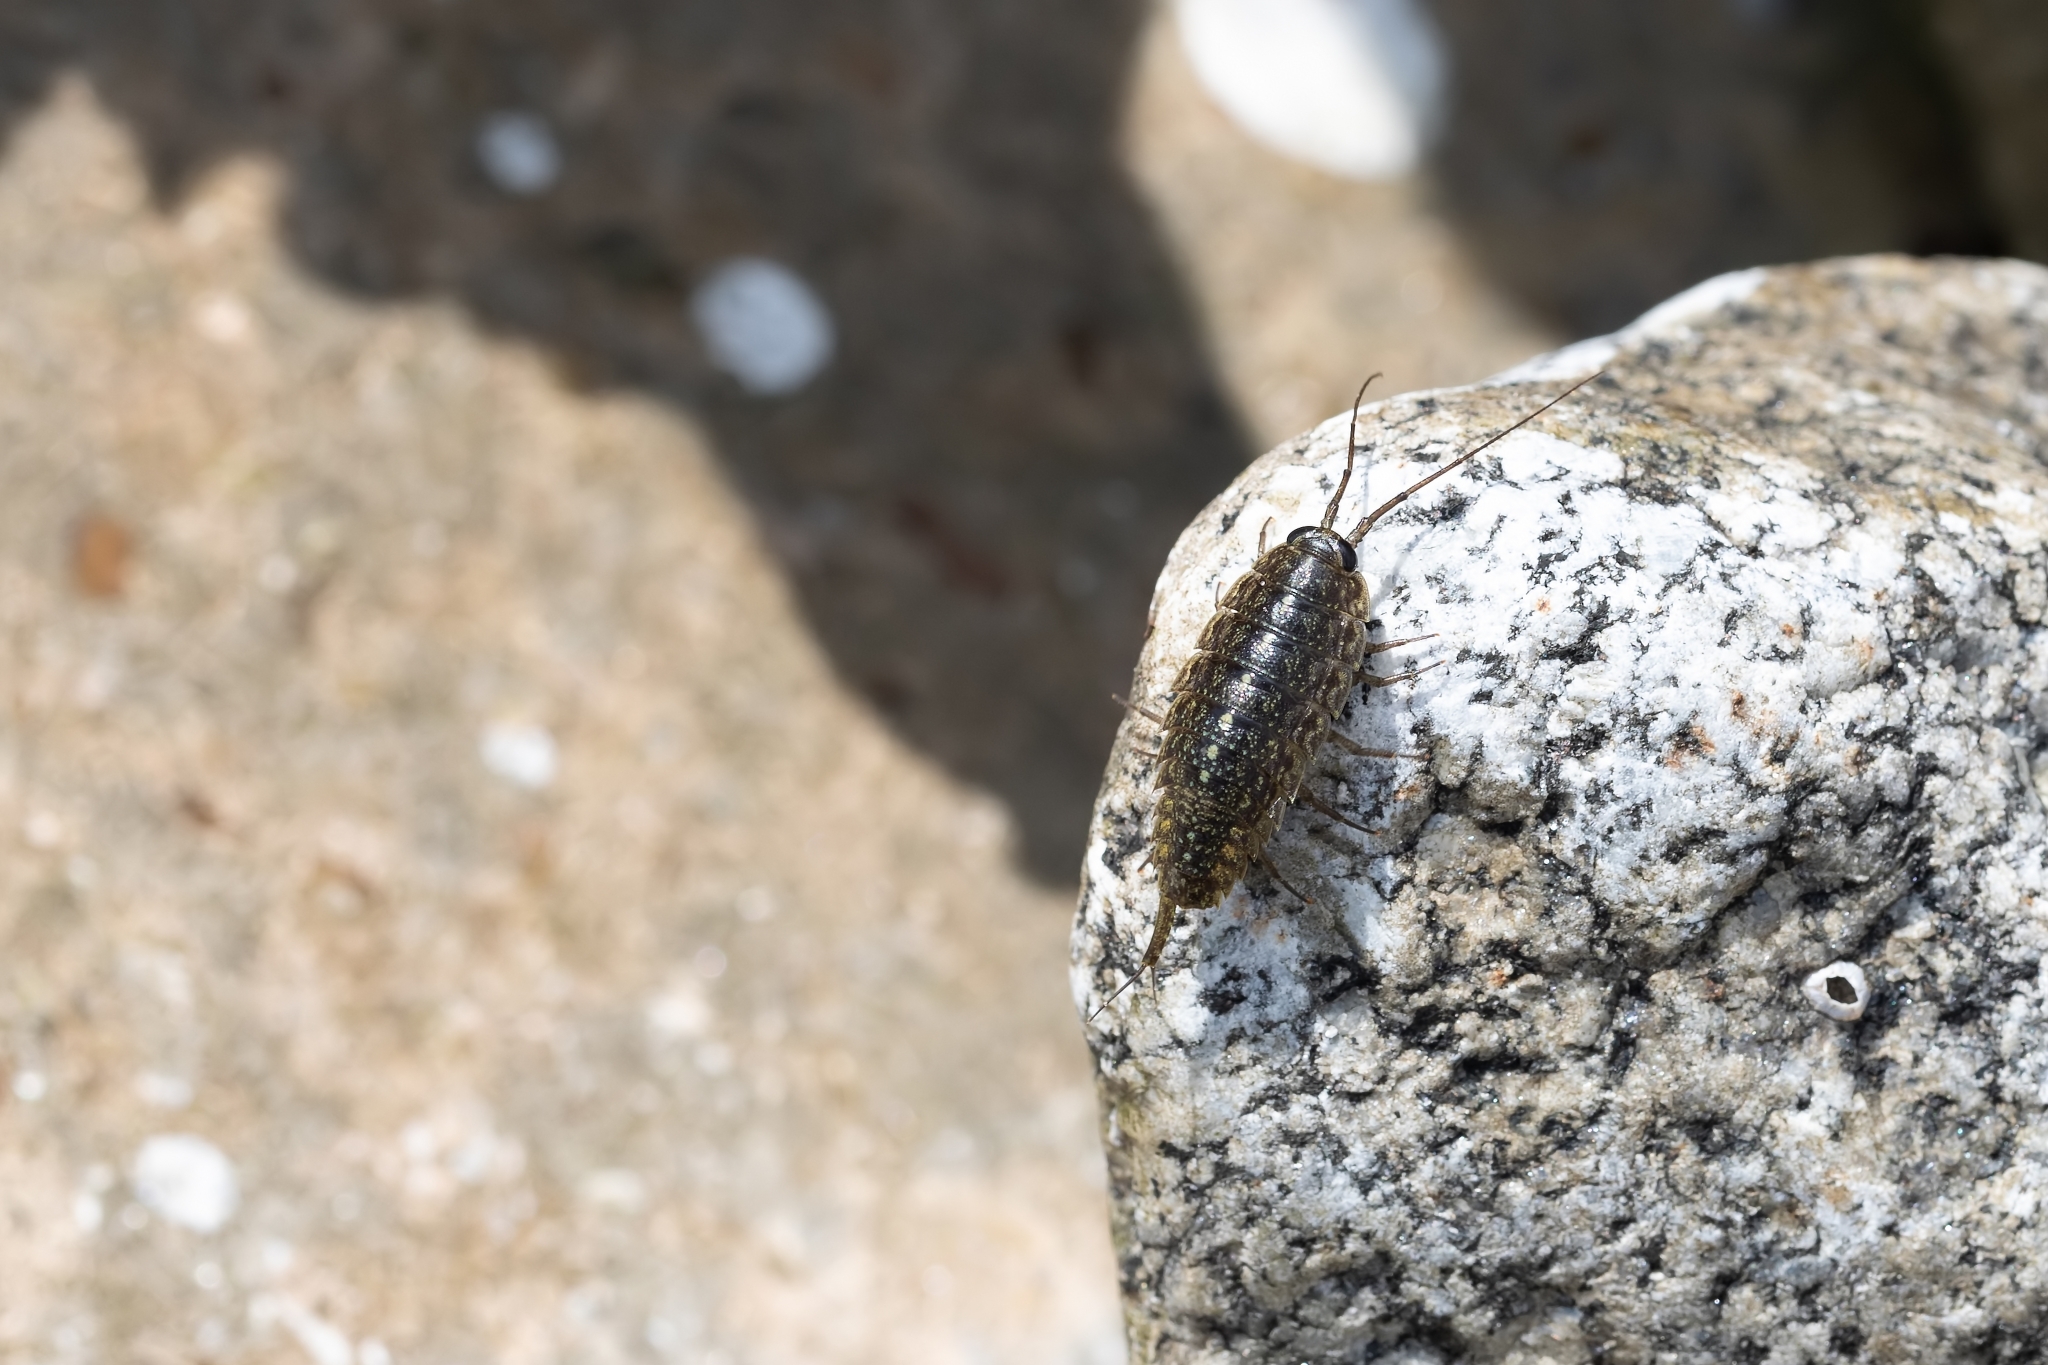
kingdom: Animalia
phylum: Arthropoda
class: Malacostraca
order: Isopoda
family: Ligiidae
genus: Ligia
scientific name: Ligia exotica
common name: Wharf roach
